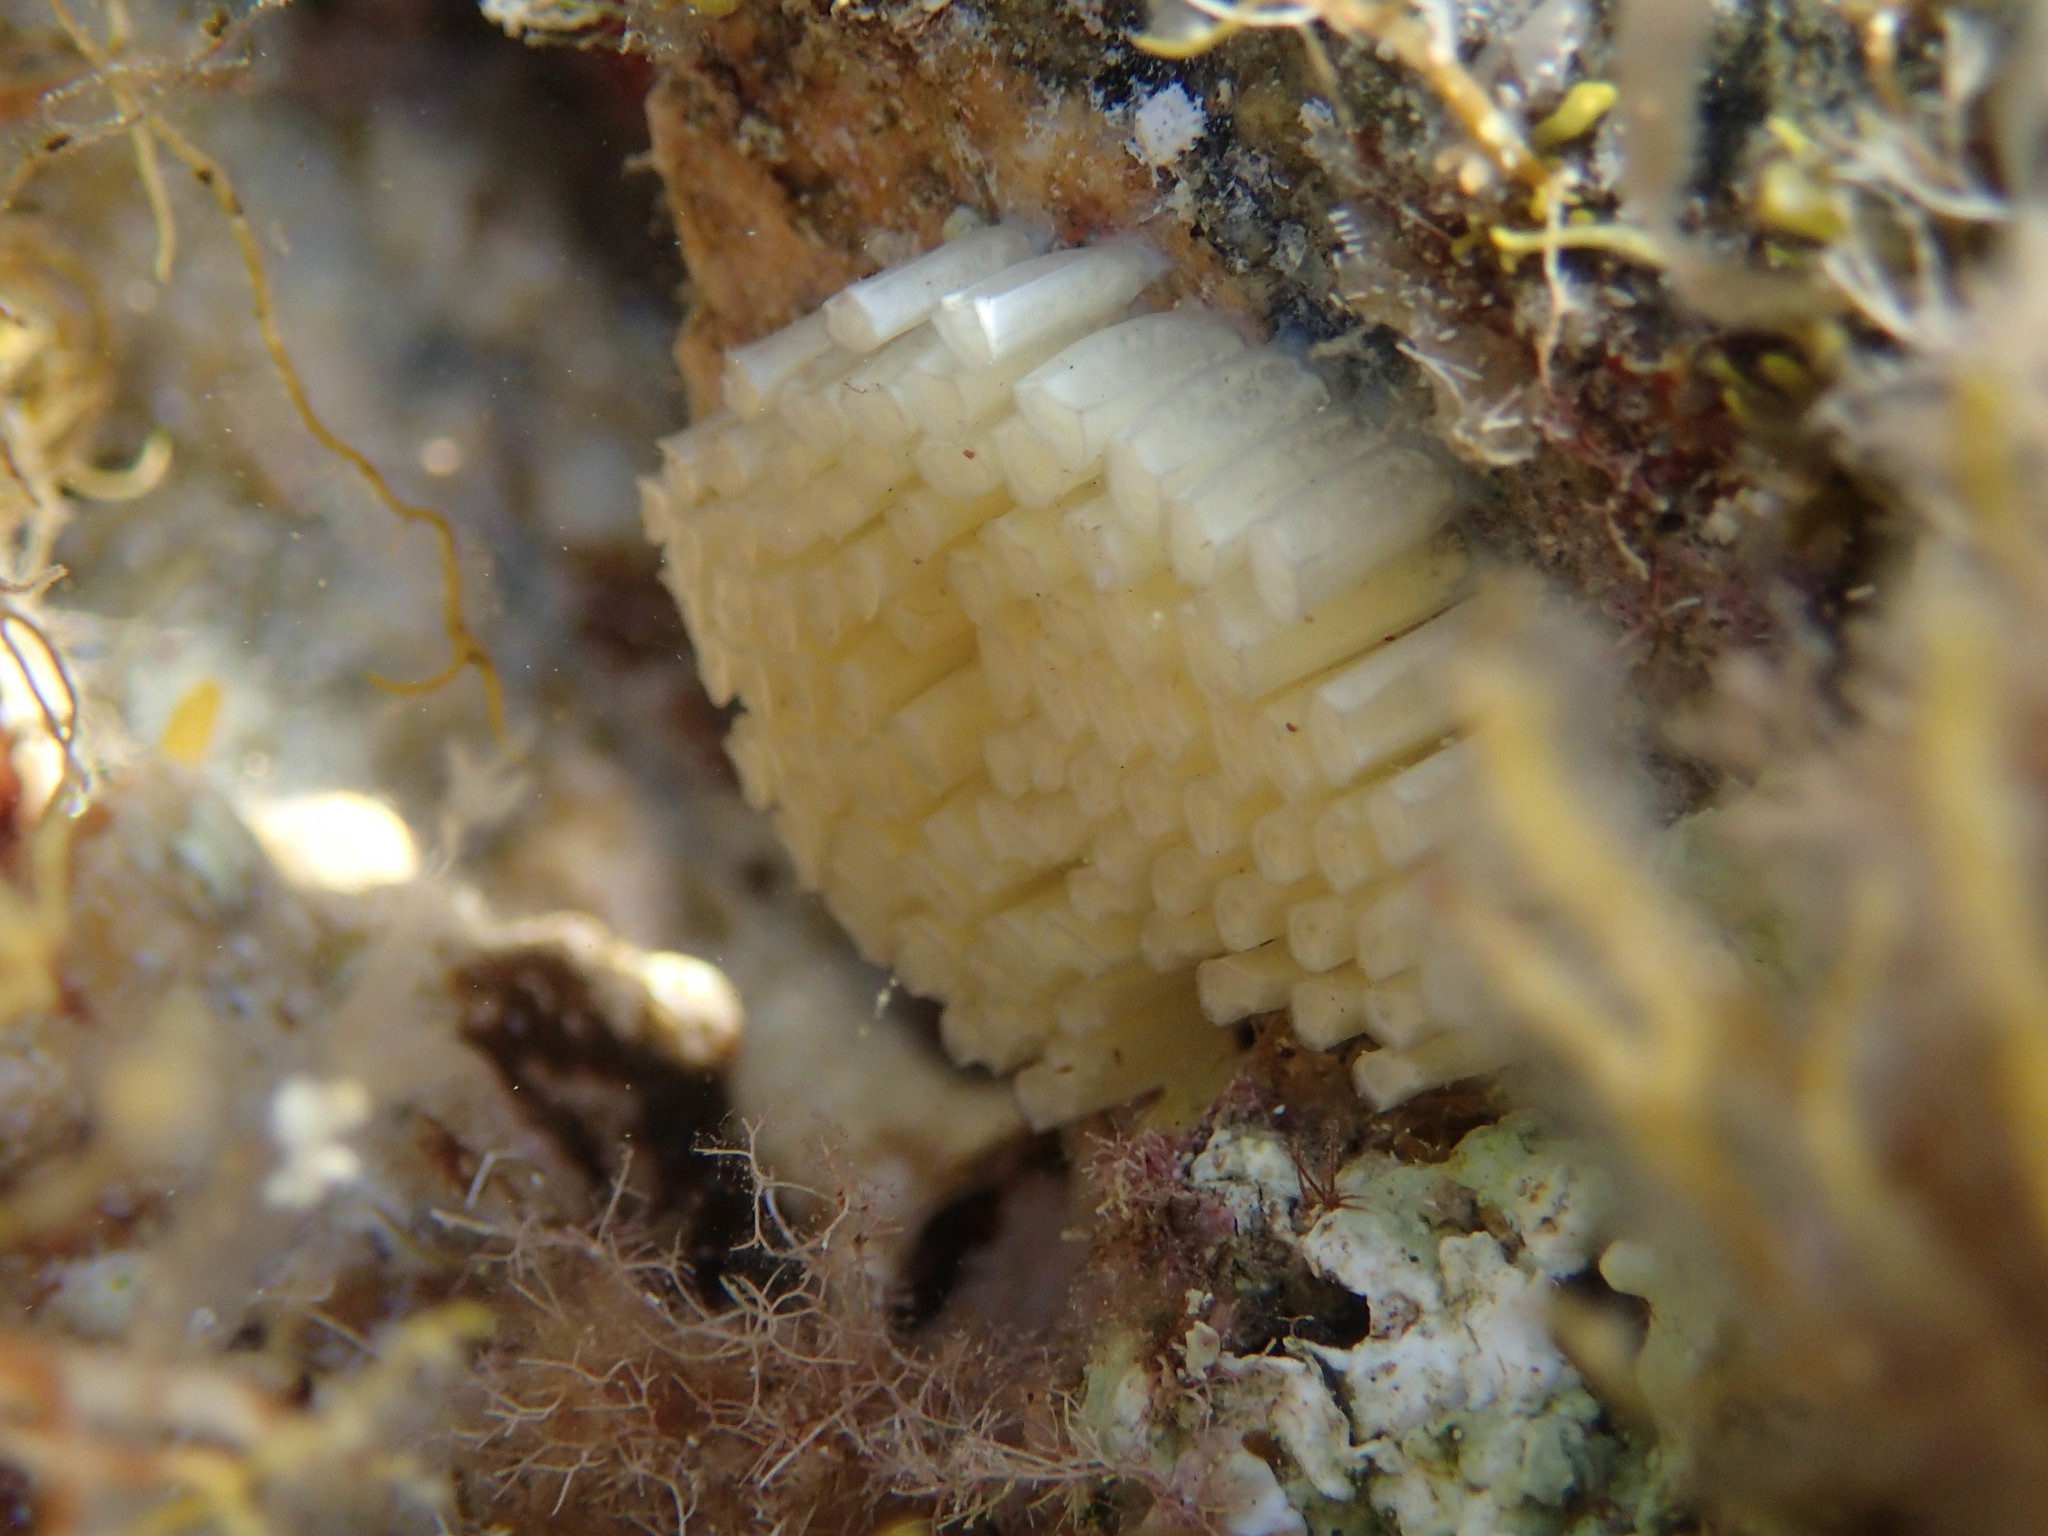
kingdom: Animalia
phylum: Mollusca
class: Gastropoda
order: Neogastropoda
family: Muricidae
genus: Stramonita
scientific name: Stramonita haemastoma
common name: Florida dog winkle
